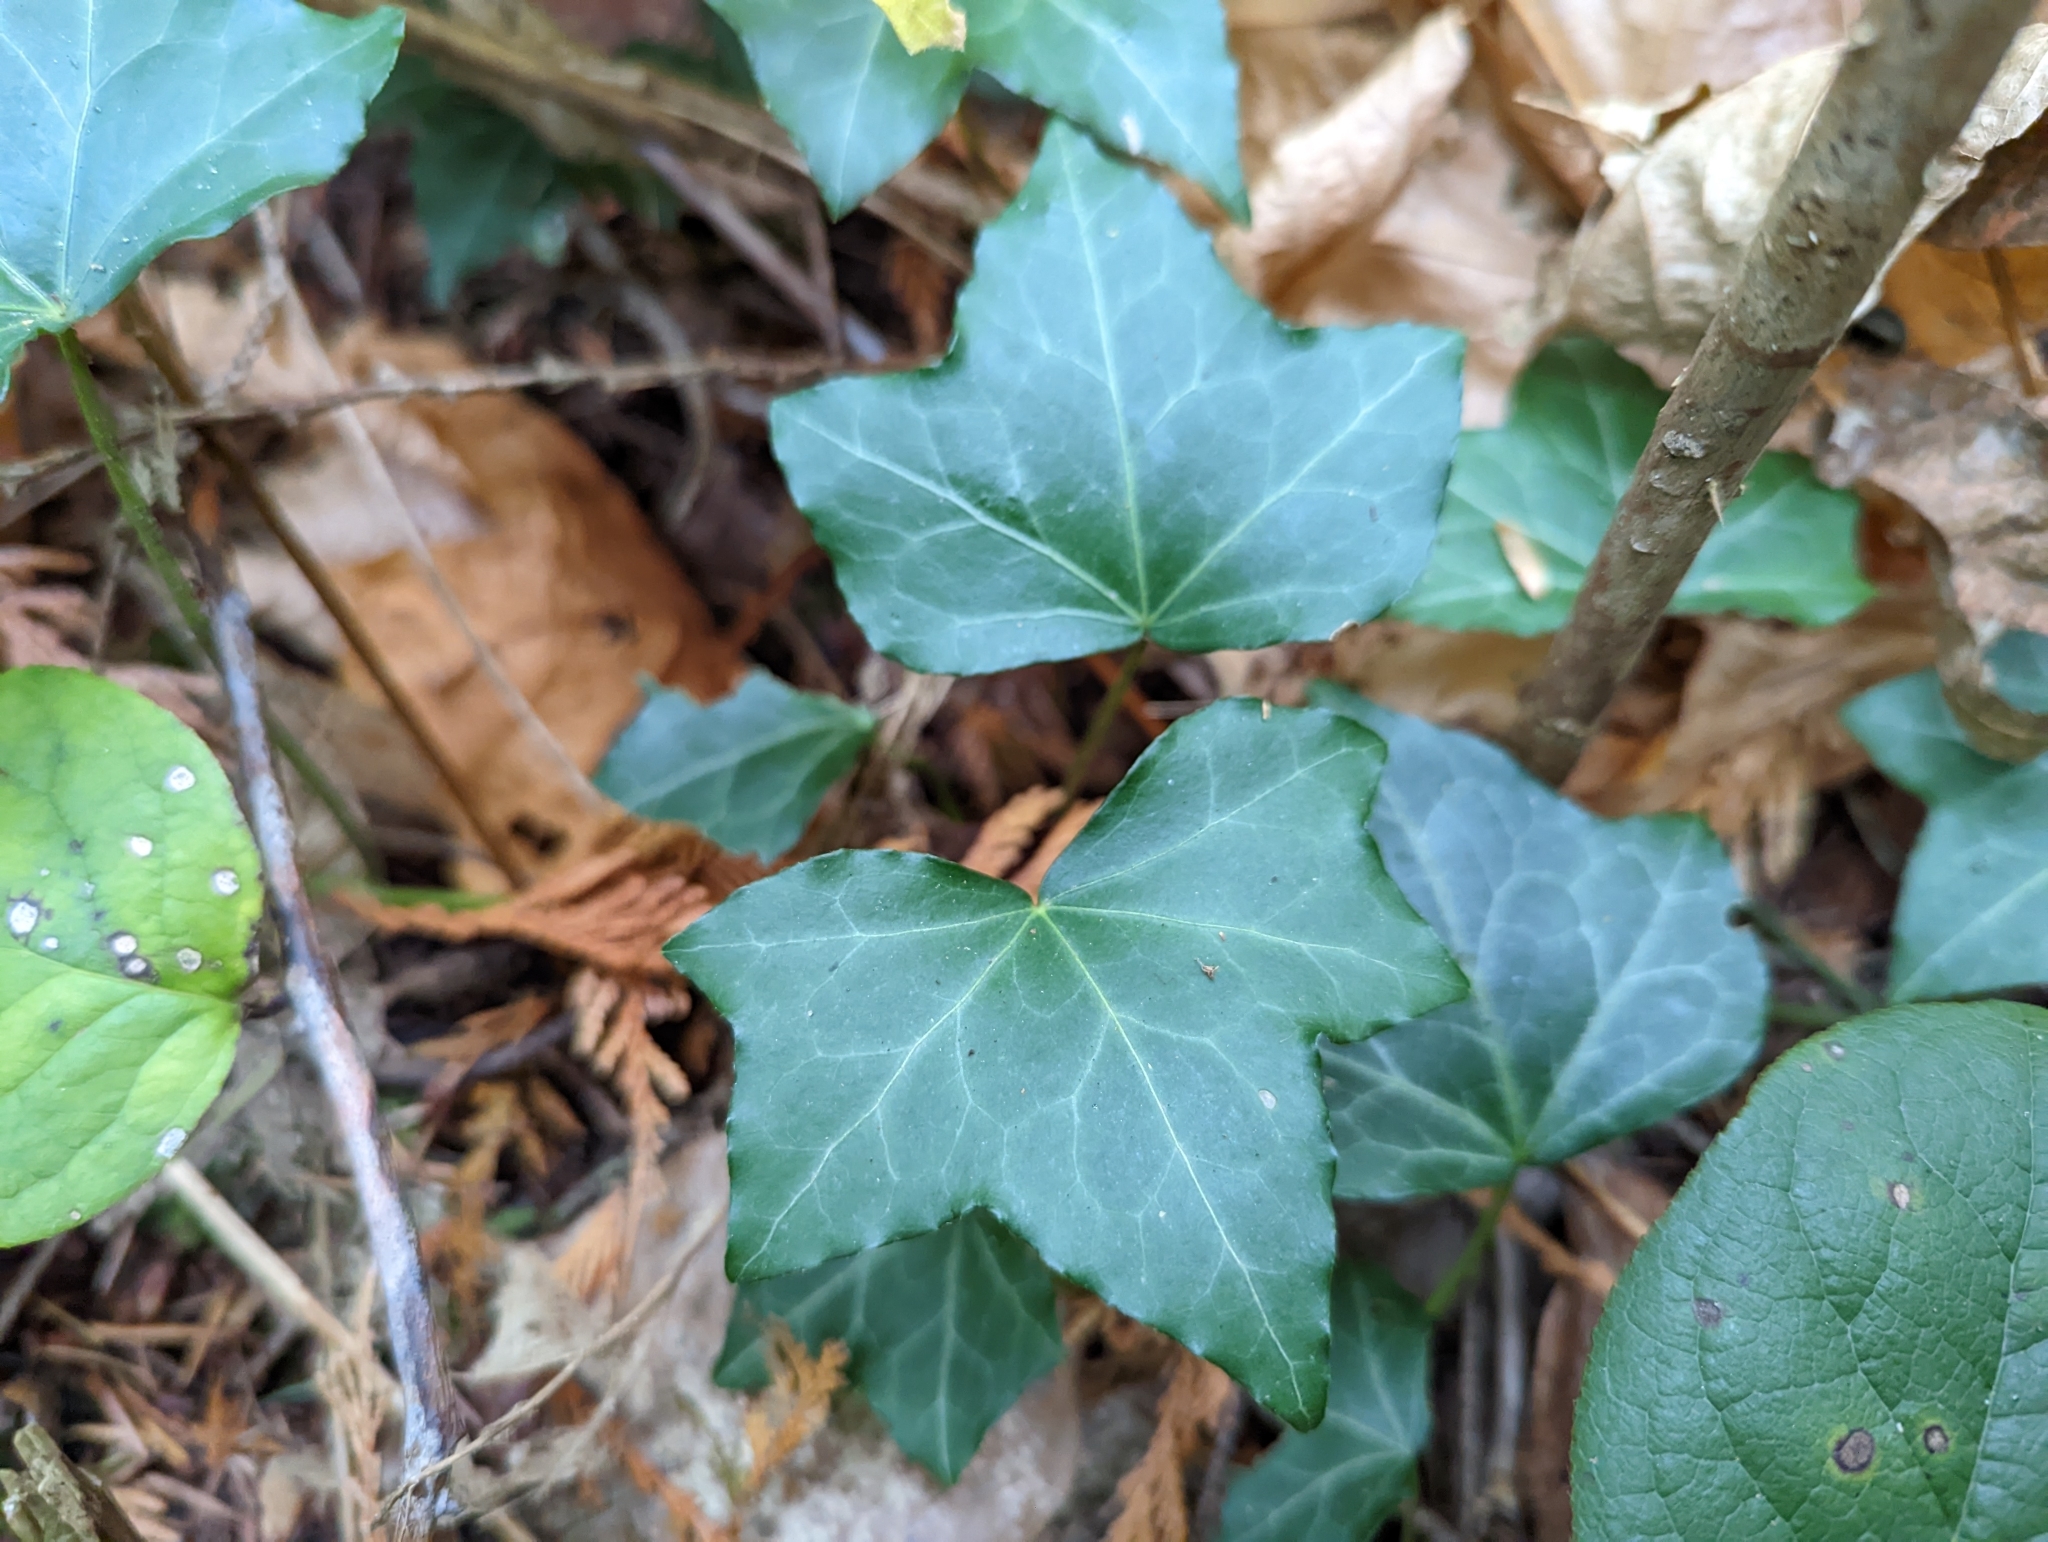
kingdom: Plantae
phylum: Tracheophyta
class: Magnoliopsida
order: Apiales
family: Araliaceae
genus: Hedera
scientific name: Hedera helix
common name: Ivy
